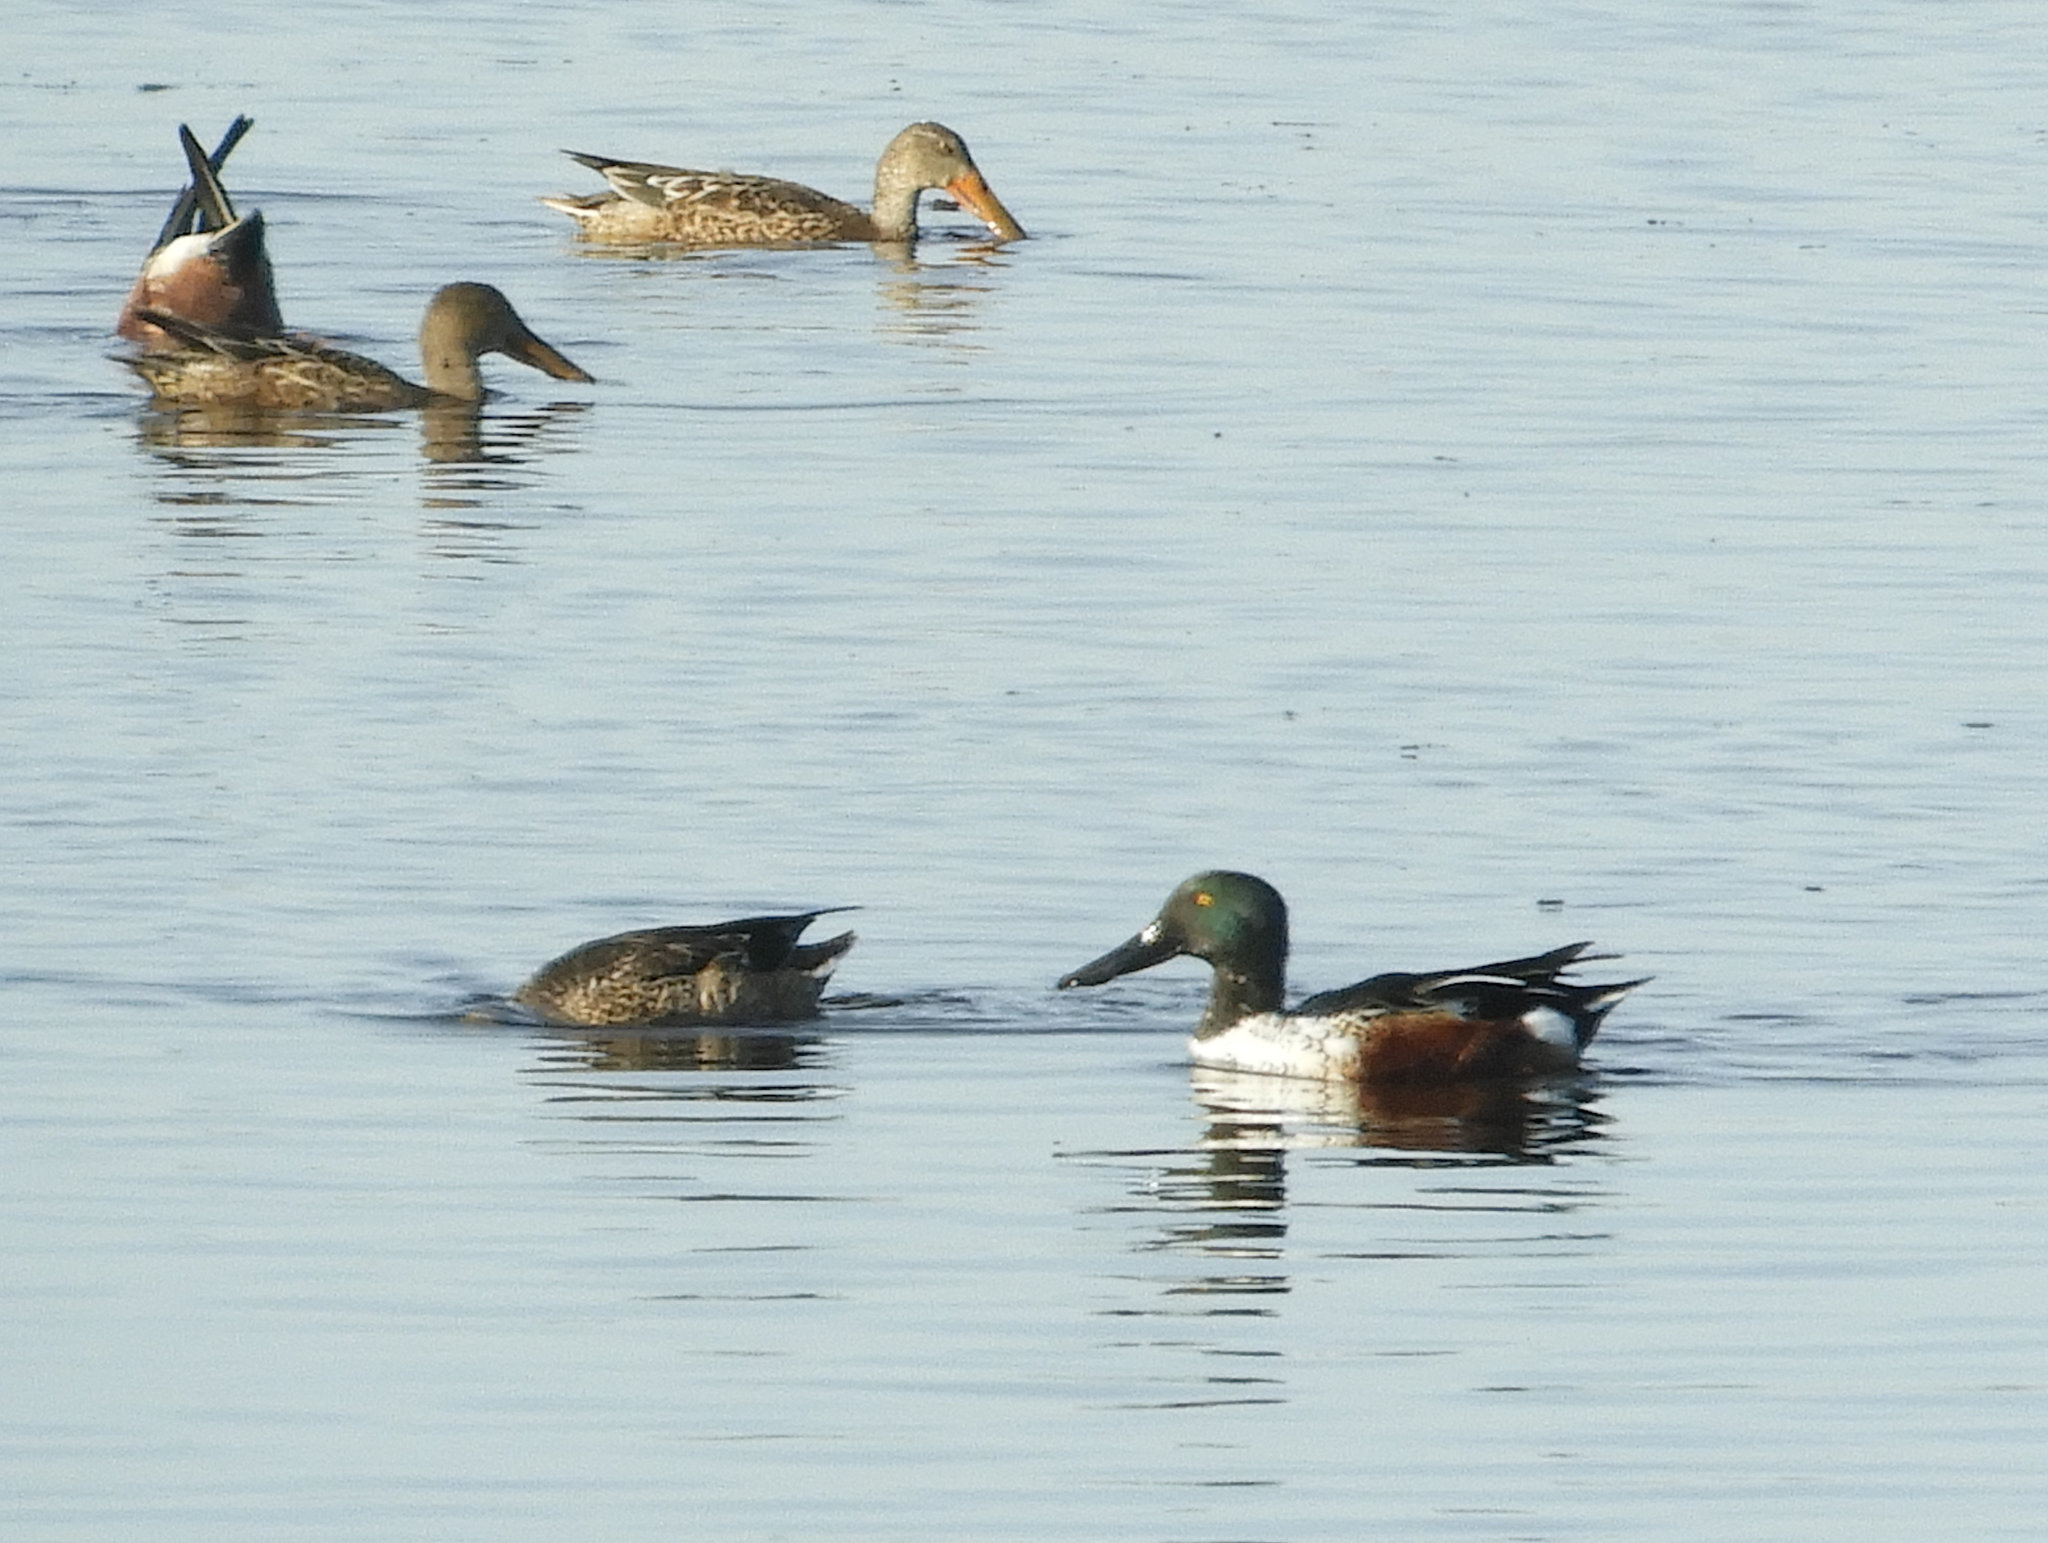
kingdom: Animalia
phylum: Chordata
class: Aves
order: Anseriformes
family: Anatidae
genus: Spatula
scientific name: Spatula clypeata
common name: Northern shoveler
